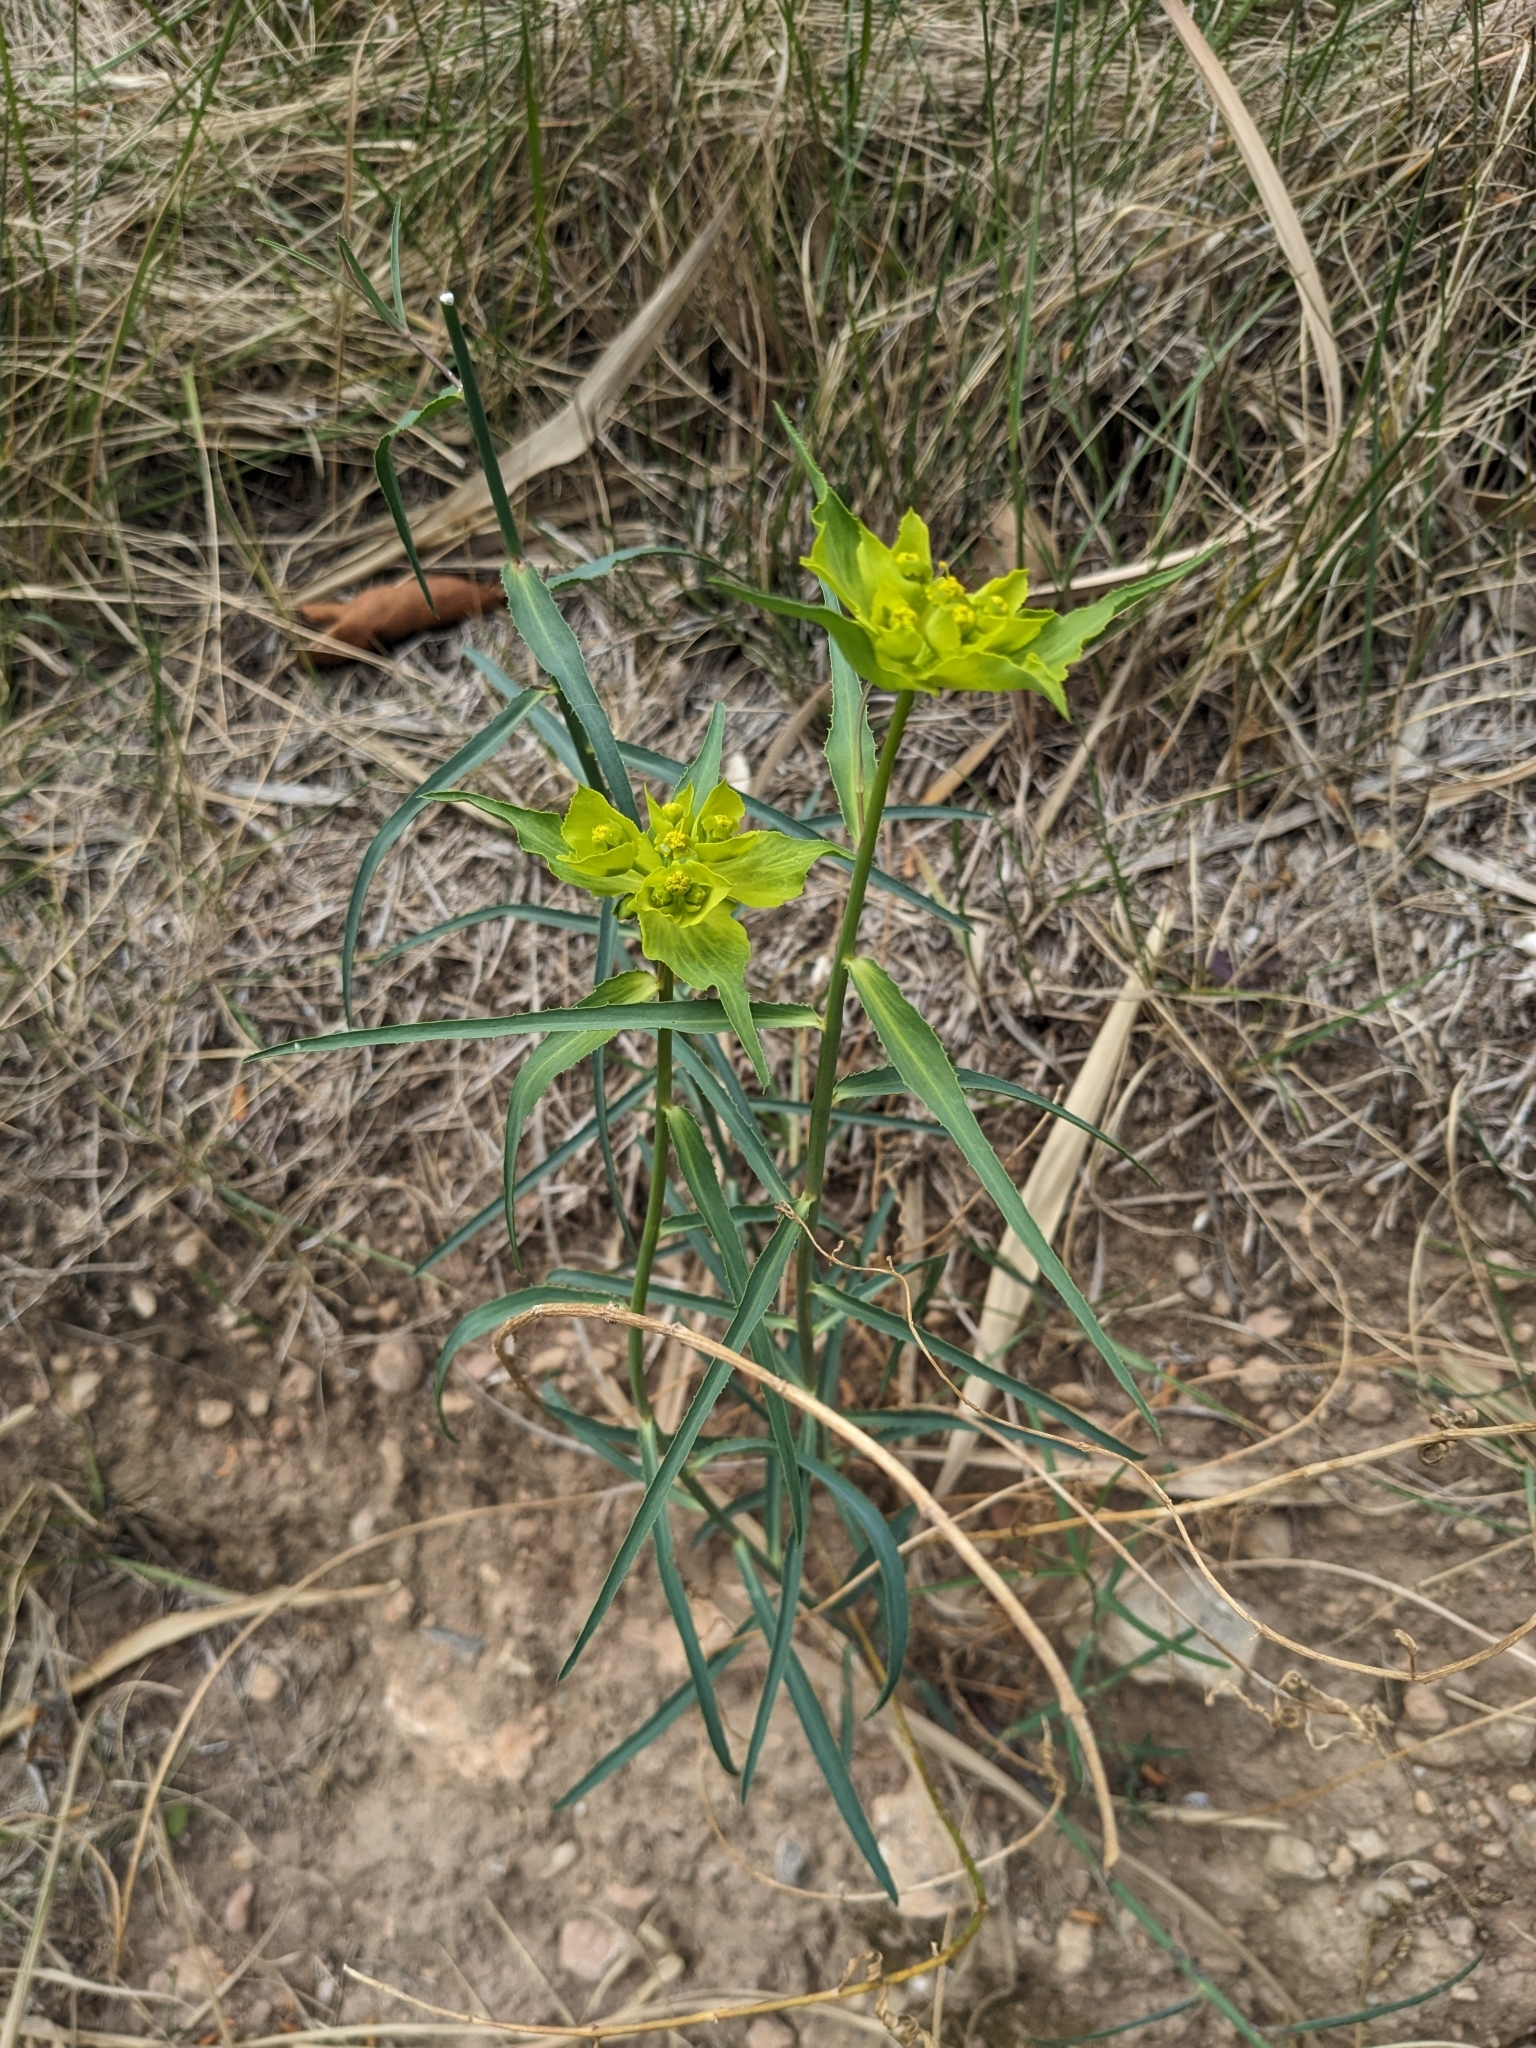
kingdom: Plantae
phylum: Tracheophyta
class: Magnoliopsida
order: Malpighiales
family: Euphorbiaceae
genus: Euphorbia
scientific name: Euphorbia serrata
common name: Serrate spurge
